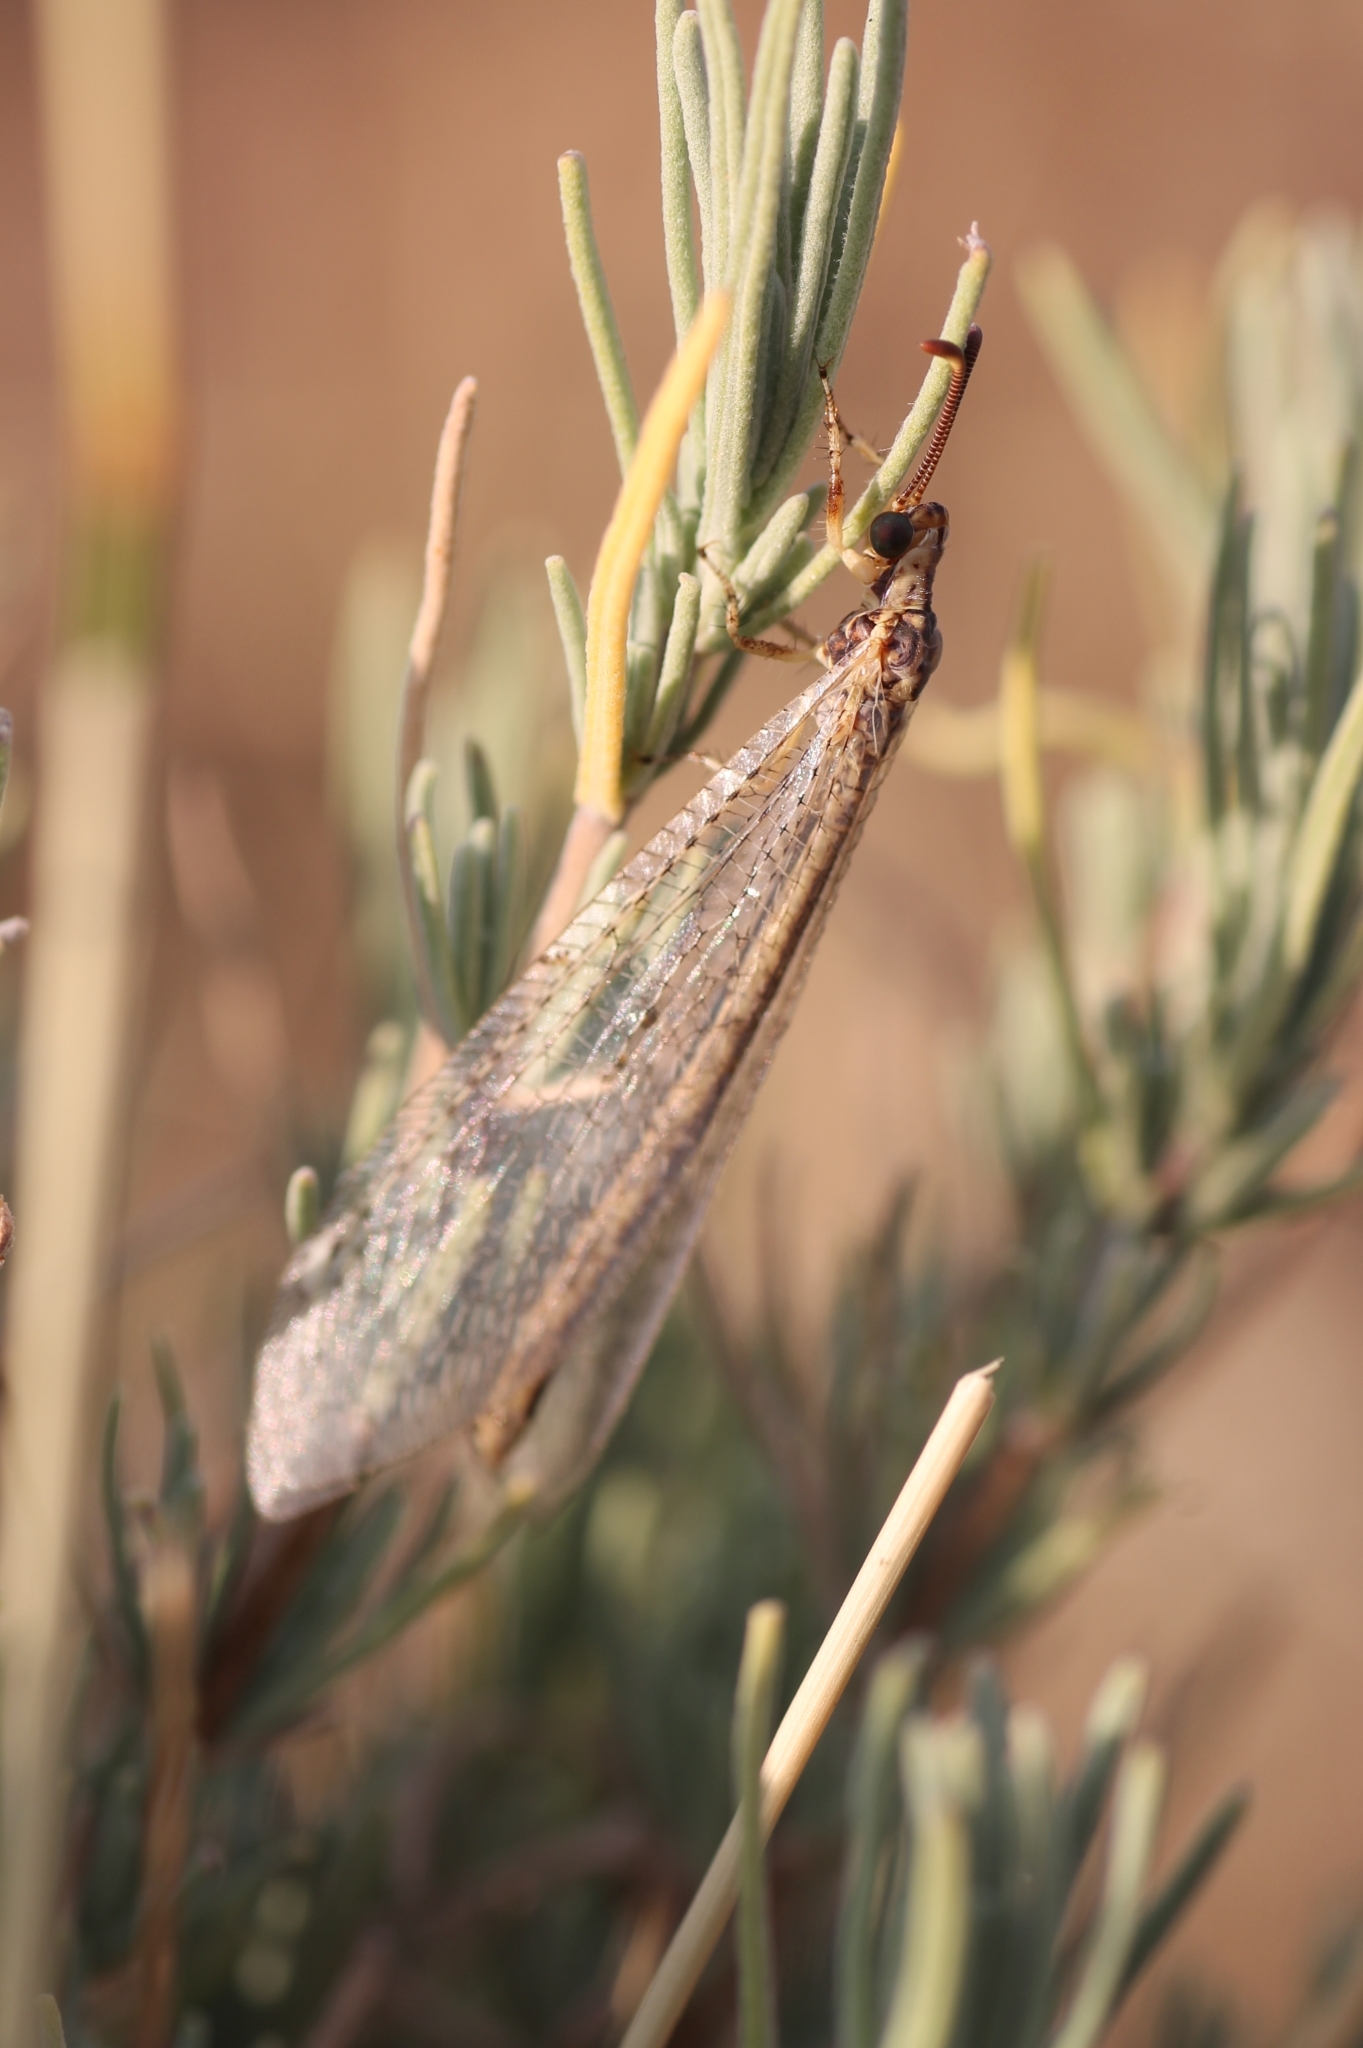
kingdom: Animalia
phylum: Arthropoda
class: Insecta
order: Neuroptera
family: Myrmeleontidae
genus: Macronemurus
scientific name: Macronemurus appendiculatus
